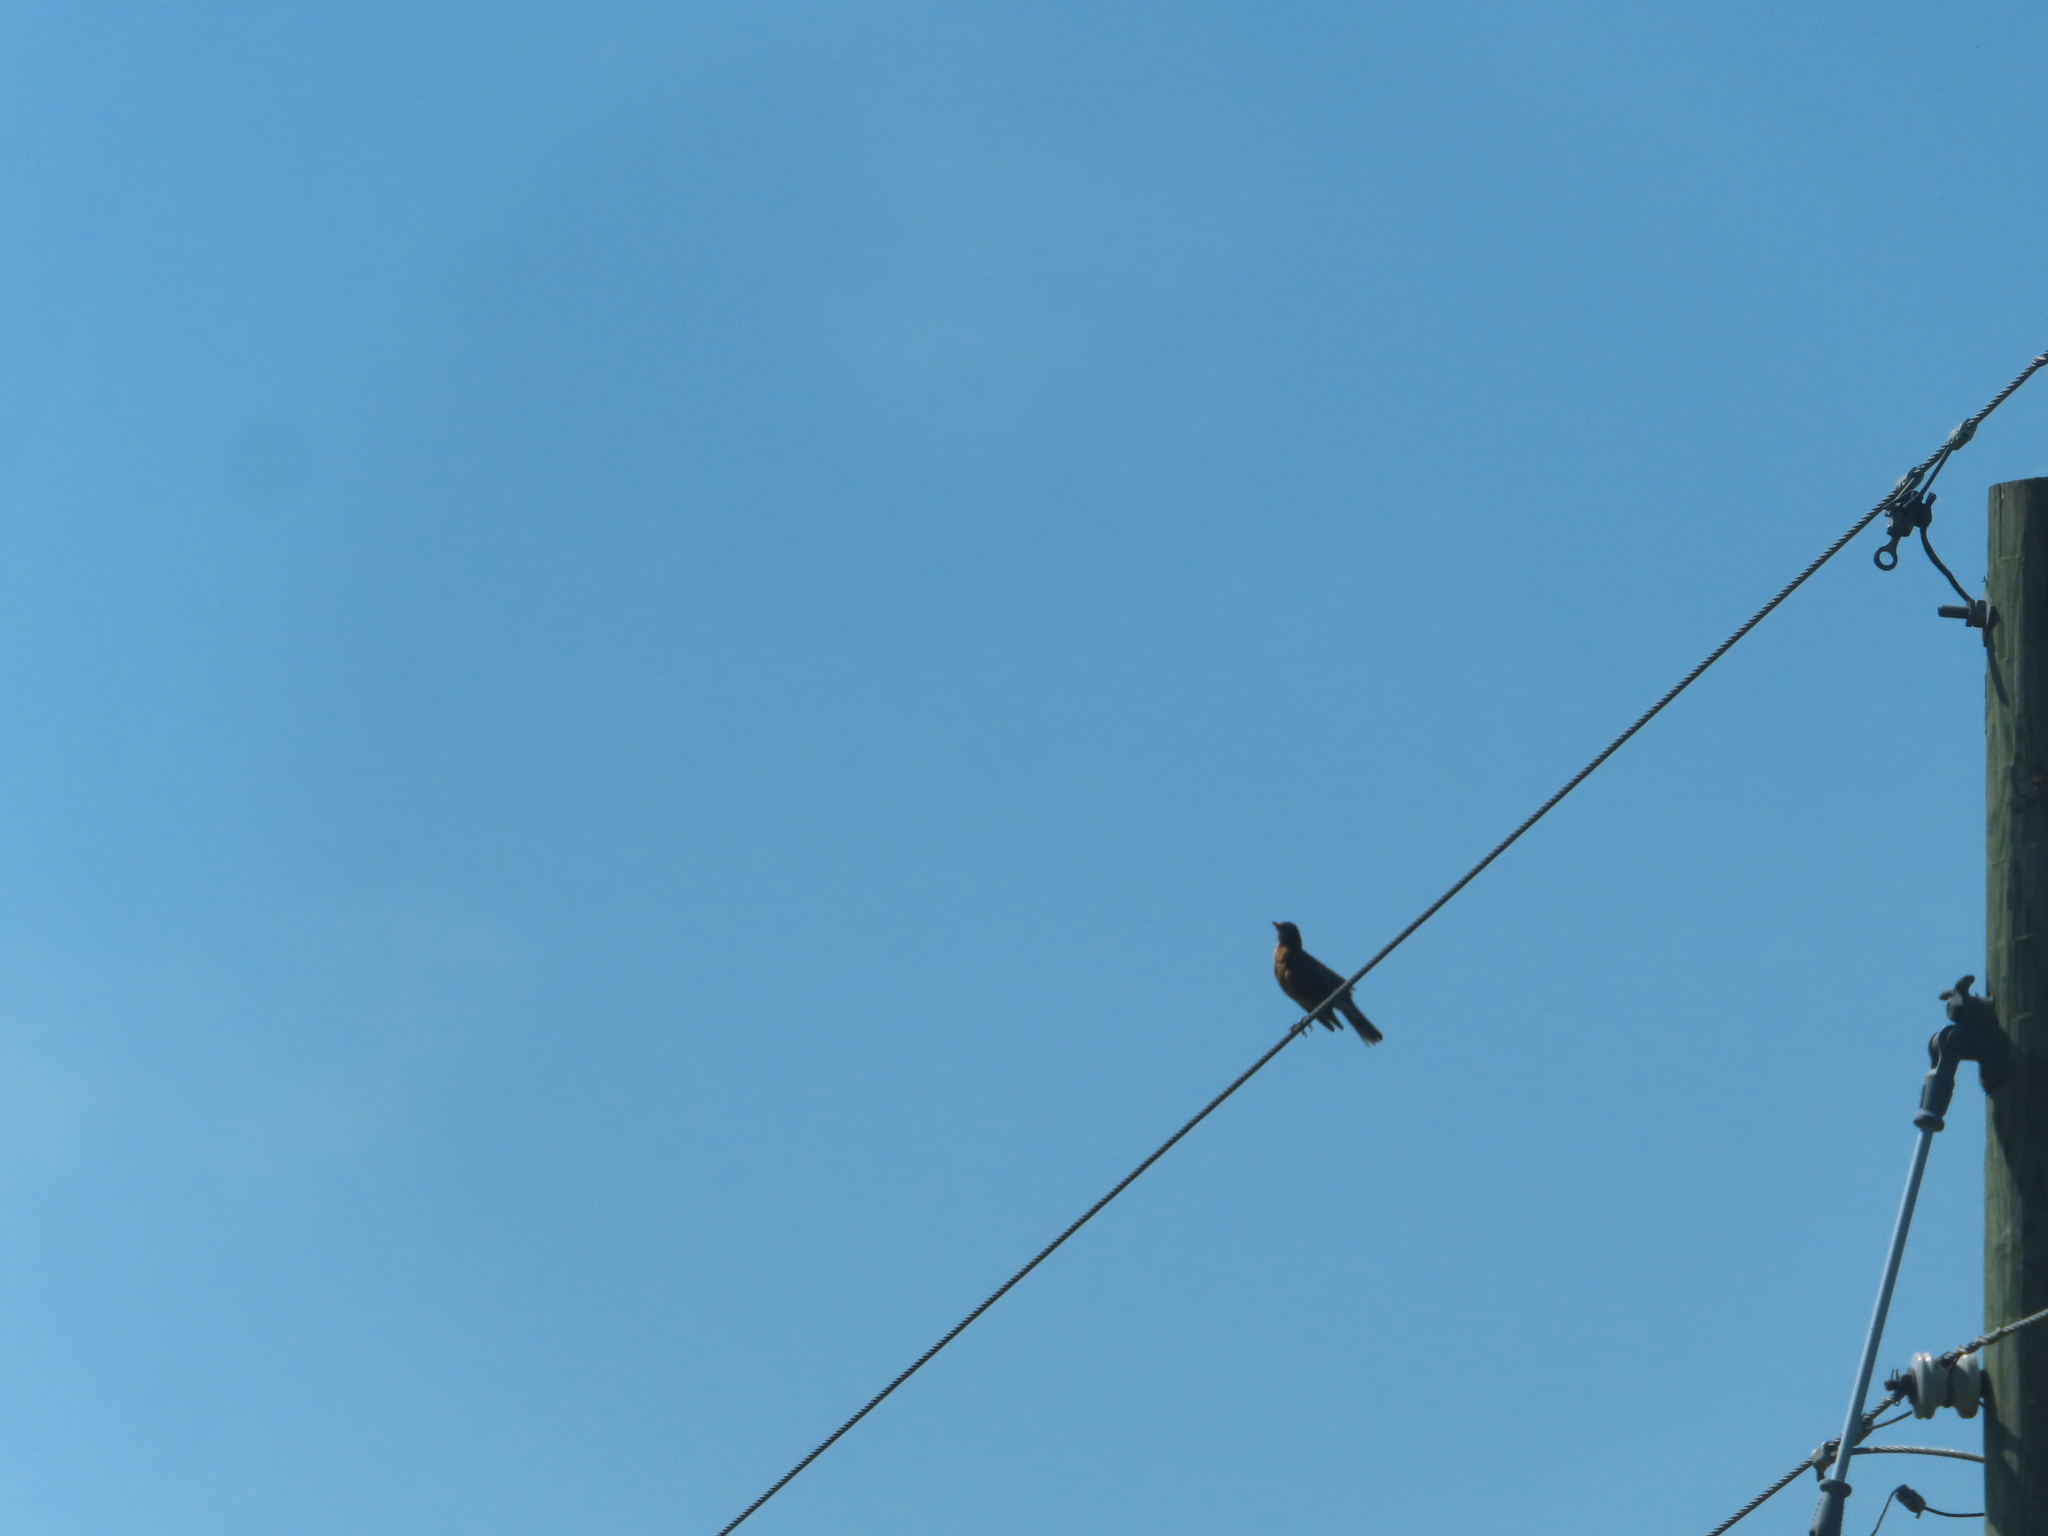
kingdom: Animalia
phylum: Chordata
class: Aves
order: Passeriformes
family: Turdidae
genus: Turdus
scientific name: Turdus migratorius
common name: American robin
